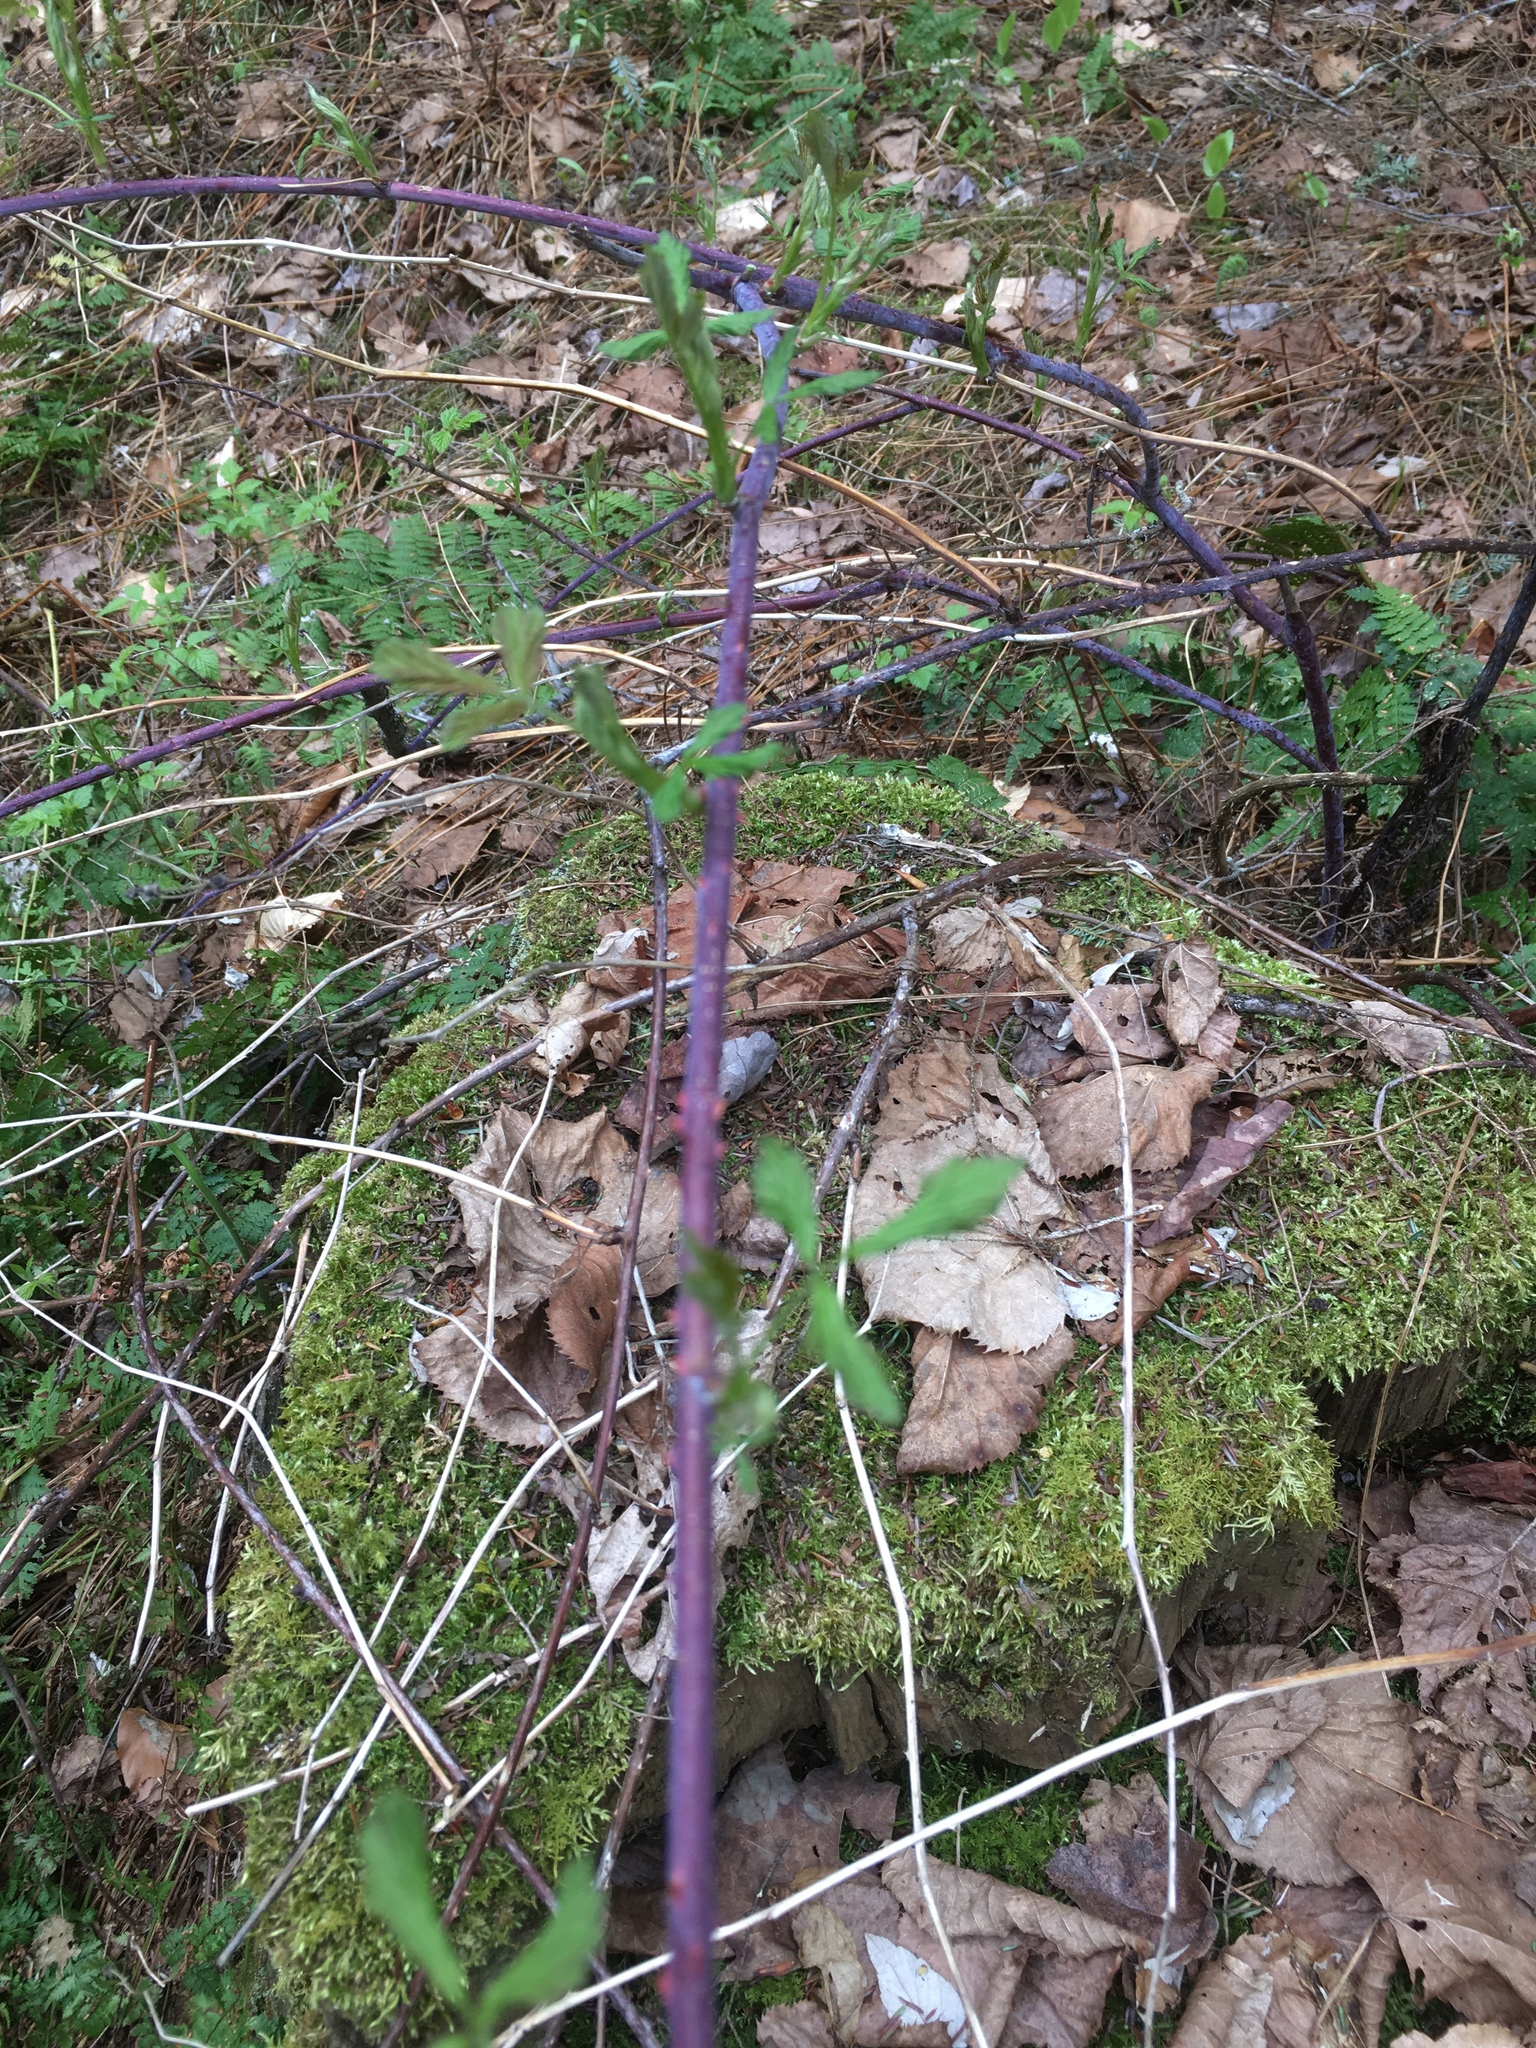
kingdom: Plantae
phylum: Tracheophyta
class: Magnoliopsida
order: Rosales
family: Rosaceae
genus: Rubus
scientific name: Rubus occidentalis
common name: Black raspberry
